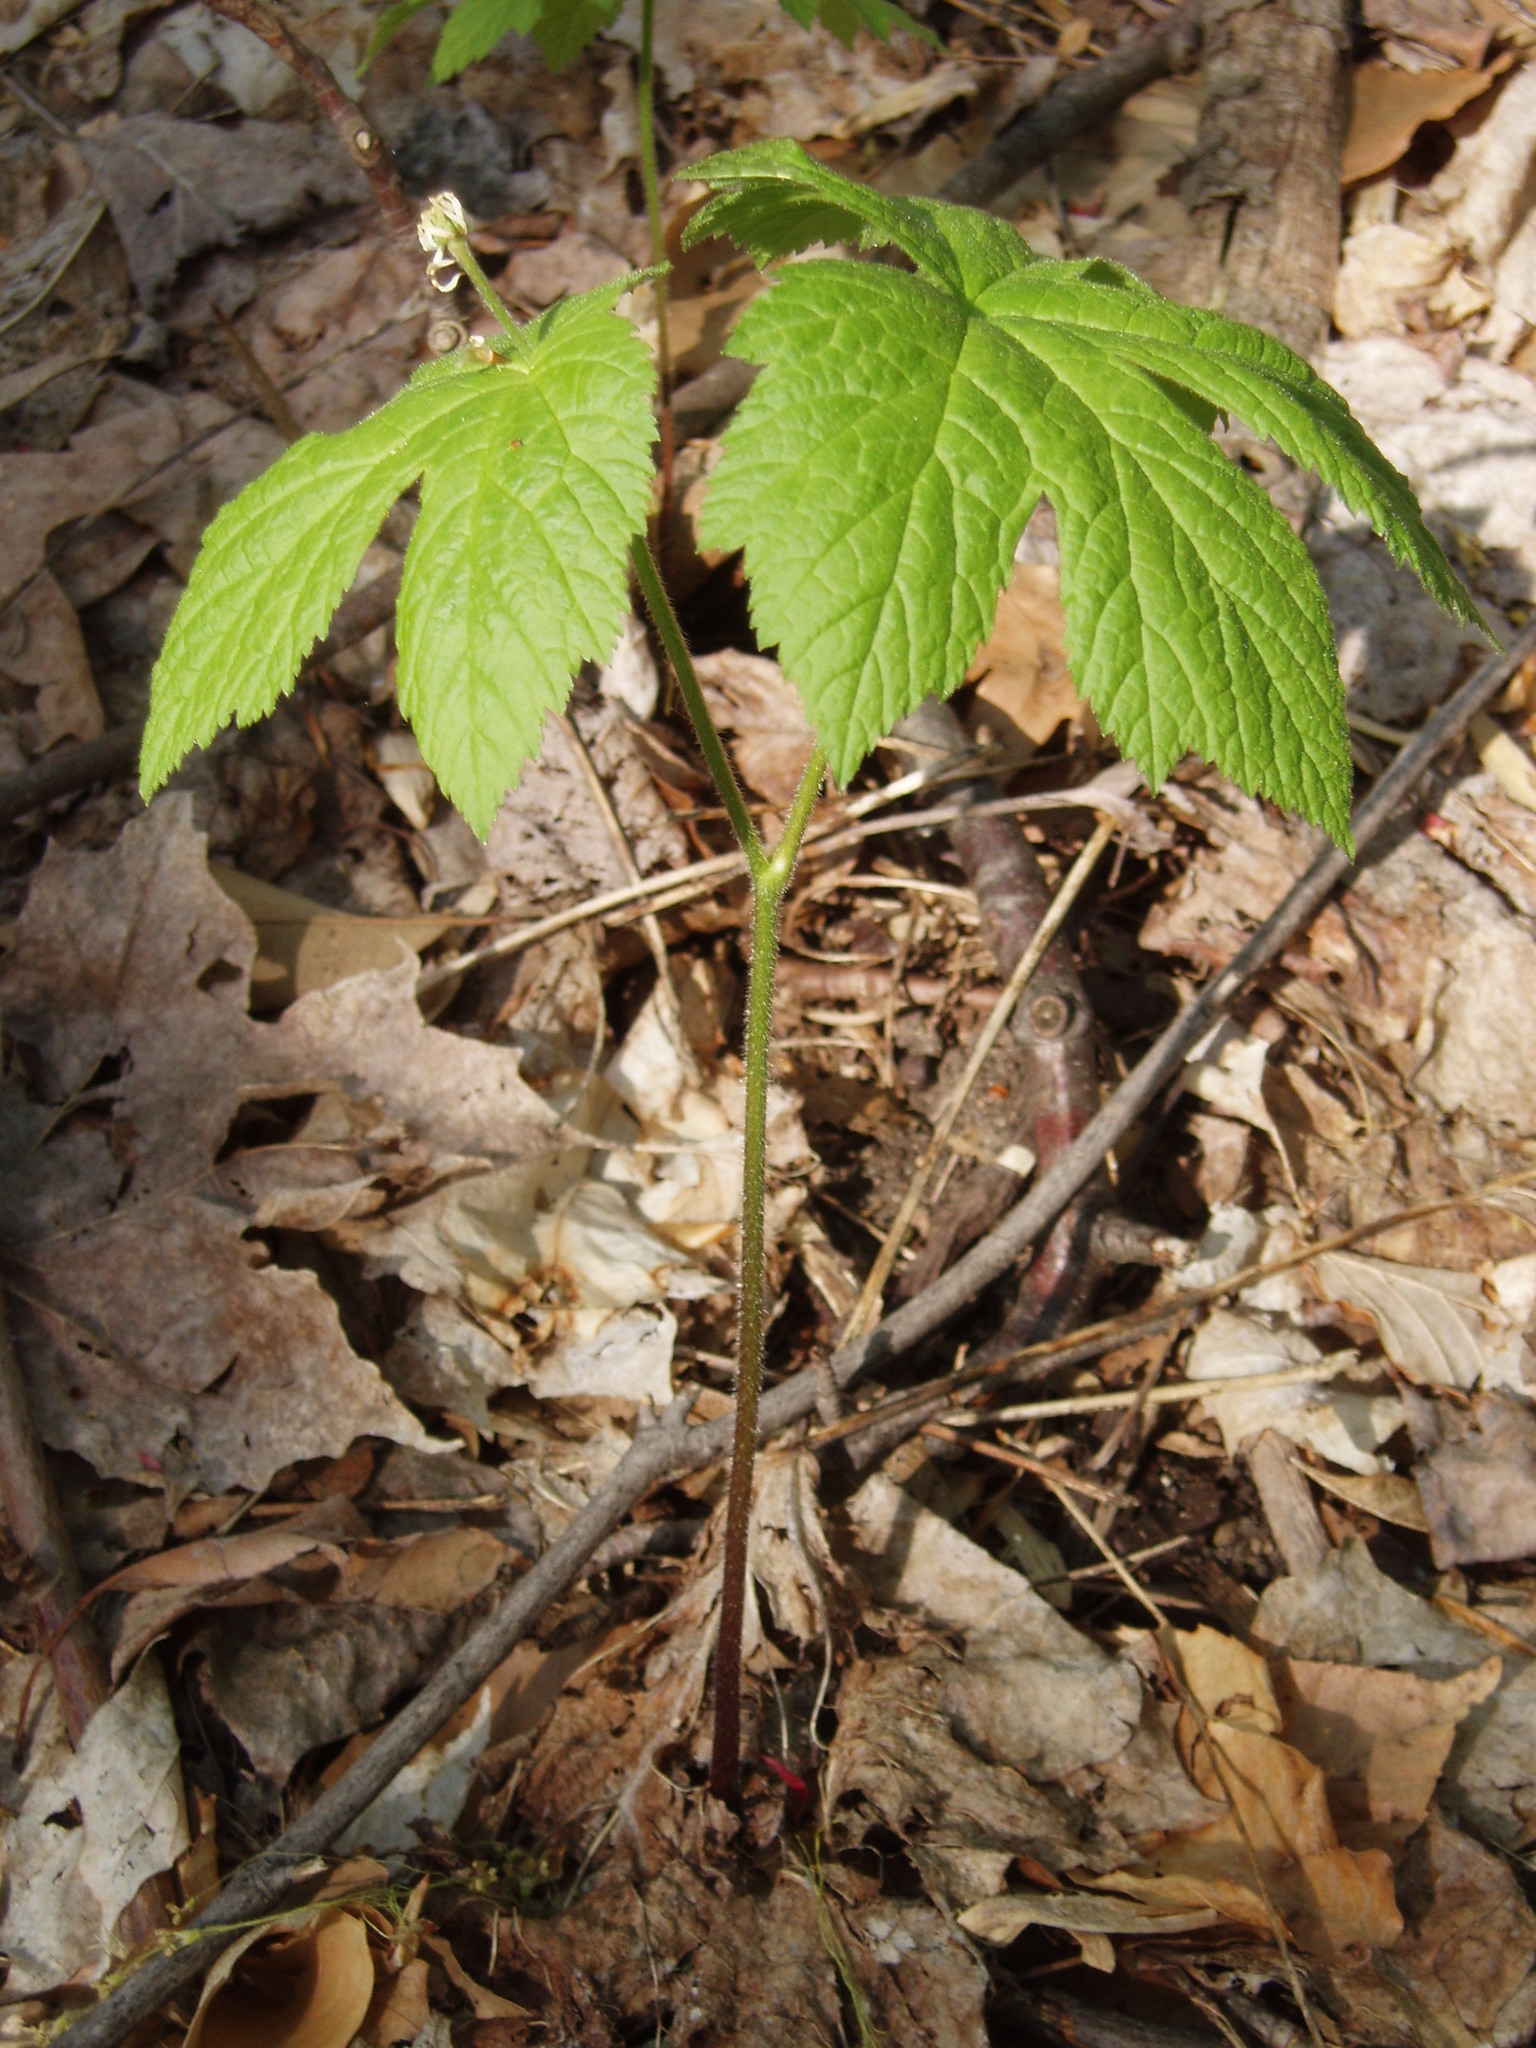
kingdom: Plantae
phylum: Tracheophyta
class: Magnoliopsida
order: Ranunculales
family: Ranunculaceae
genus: Hydrastis
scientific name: Hydrastis canadensis
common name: Goldenseal
